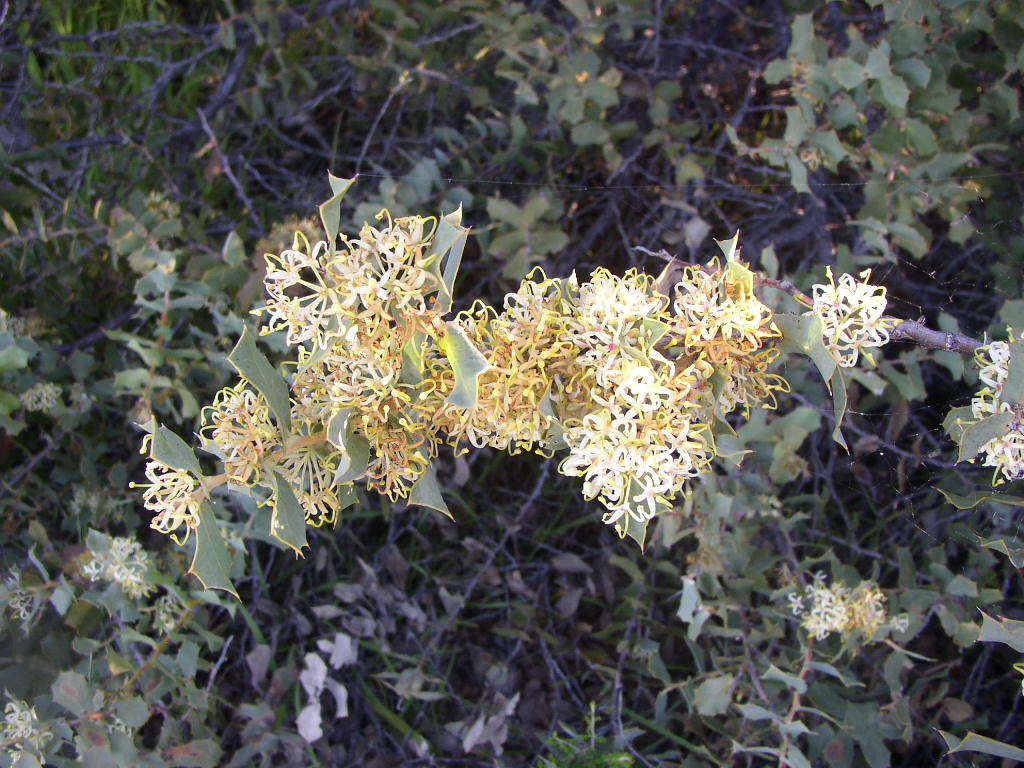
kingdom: Plantae
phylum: Tracheophyta
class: Magnoliopsida
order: Proteales
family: Proteaceae
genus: Hakea
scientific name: Hakea prostrata
